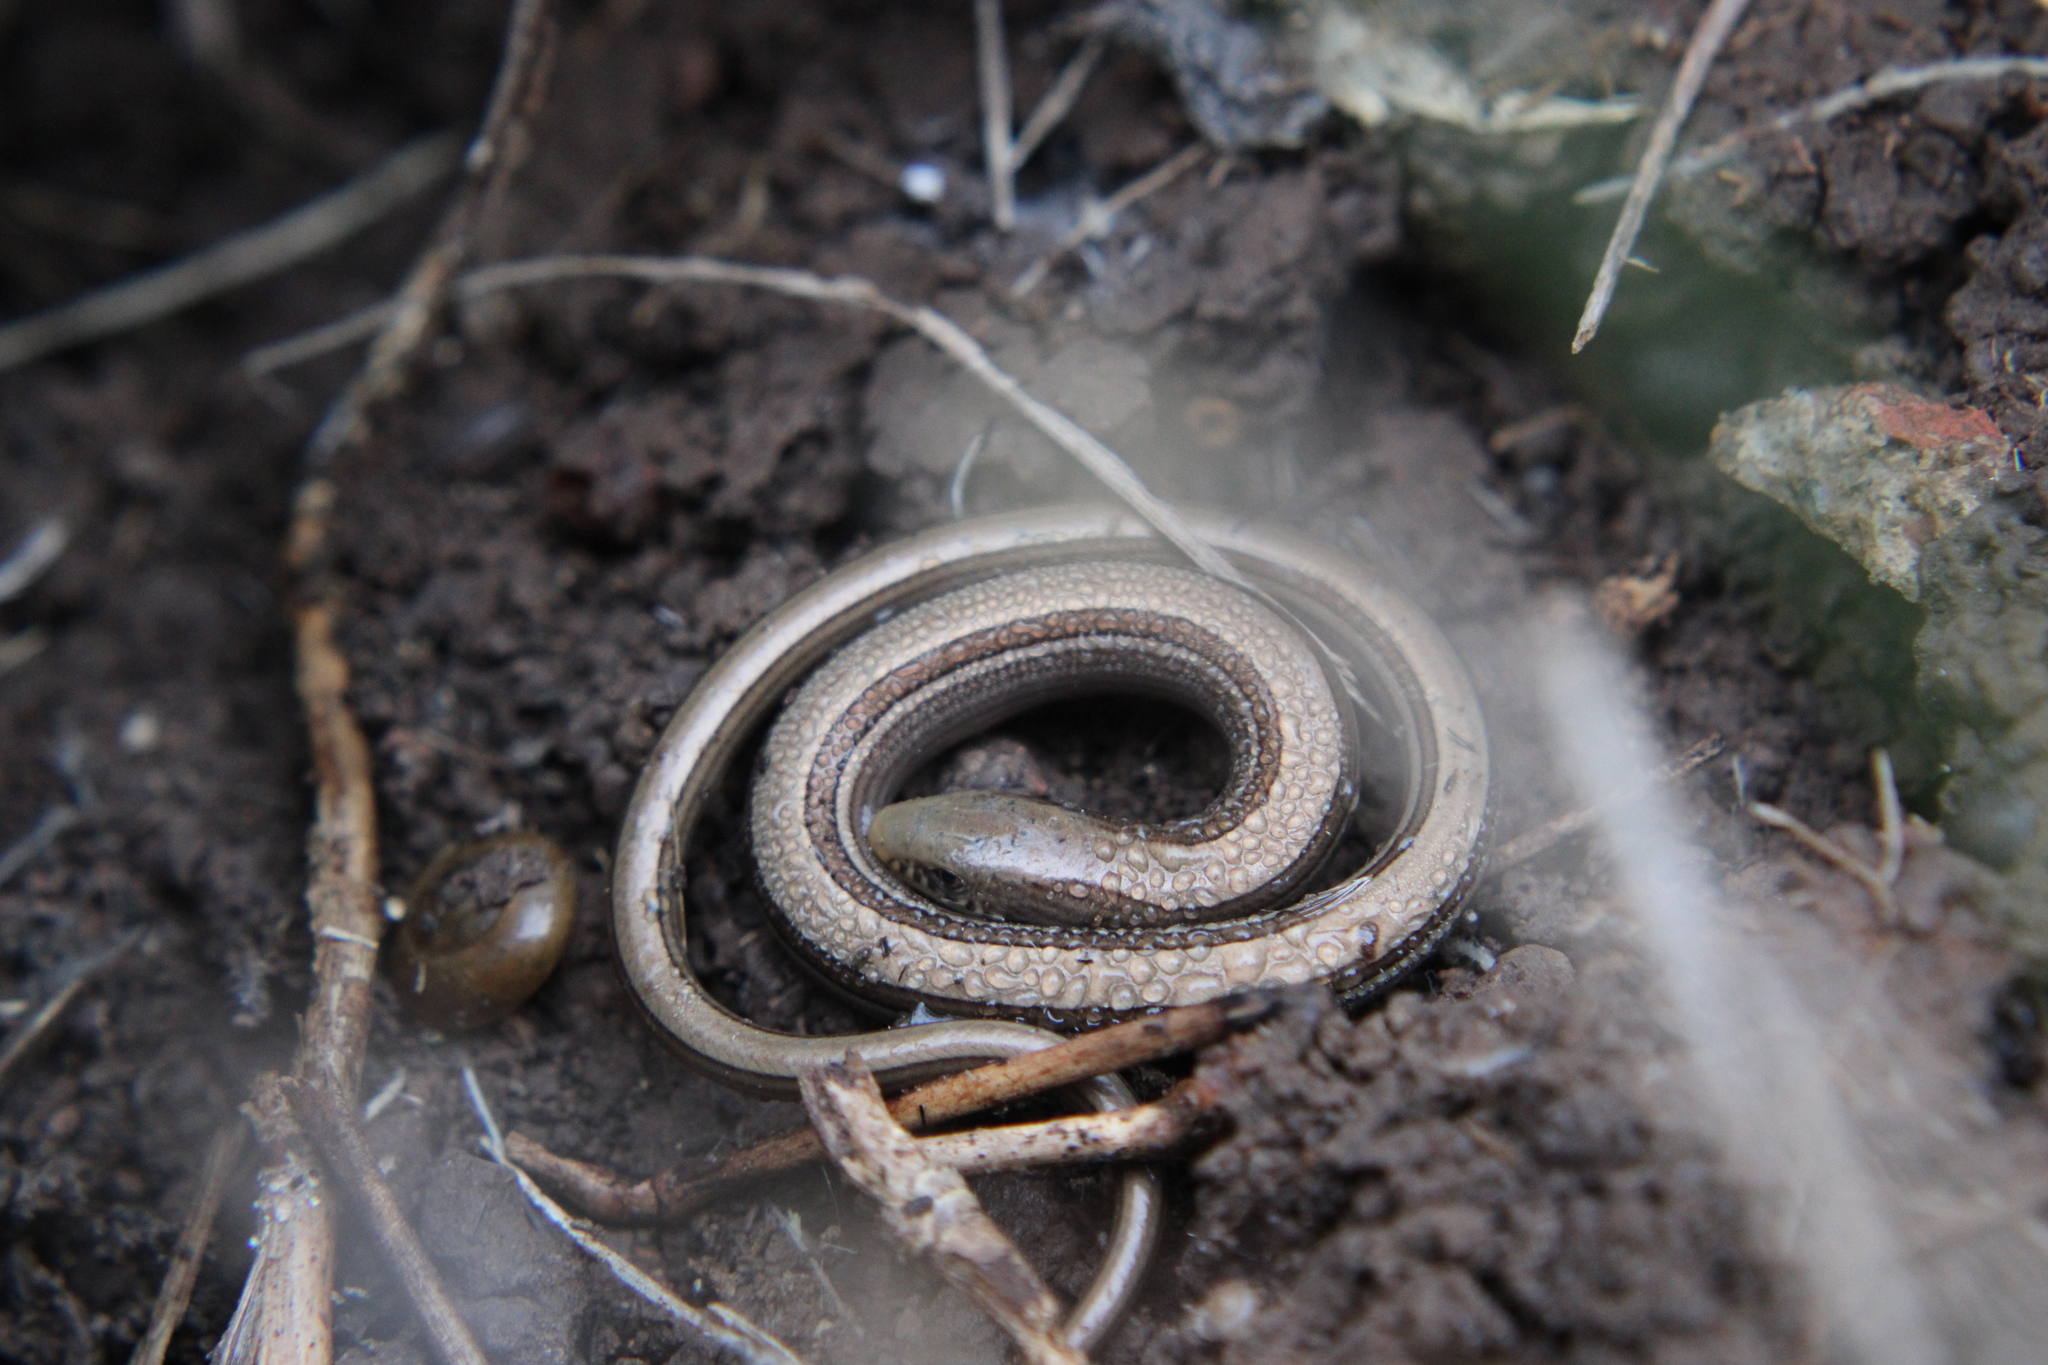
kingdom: Animalia
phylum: Chordata
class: Squamata
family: Diploglossidae
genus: Ophiodes
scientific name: Ophiodes intermedius
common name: Middle worm lizard
